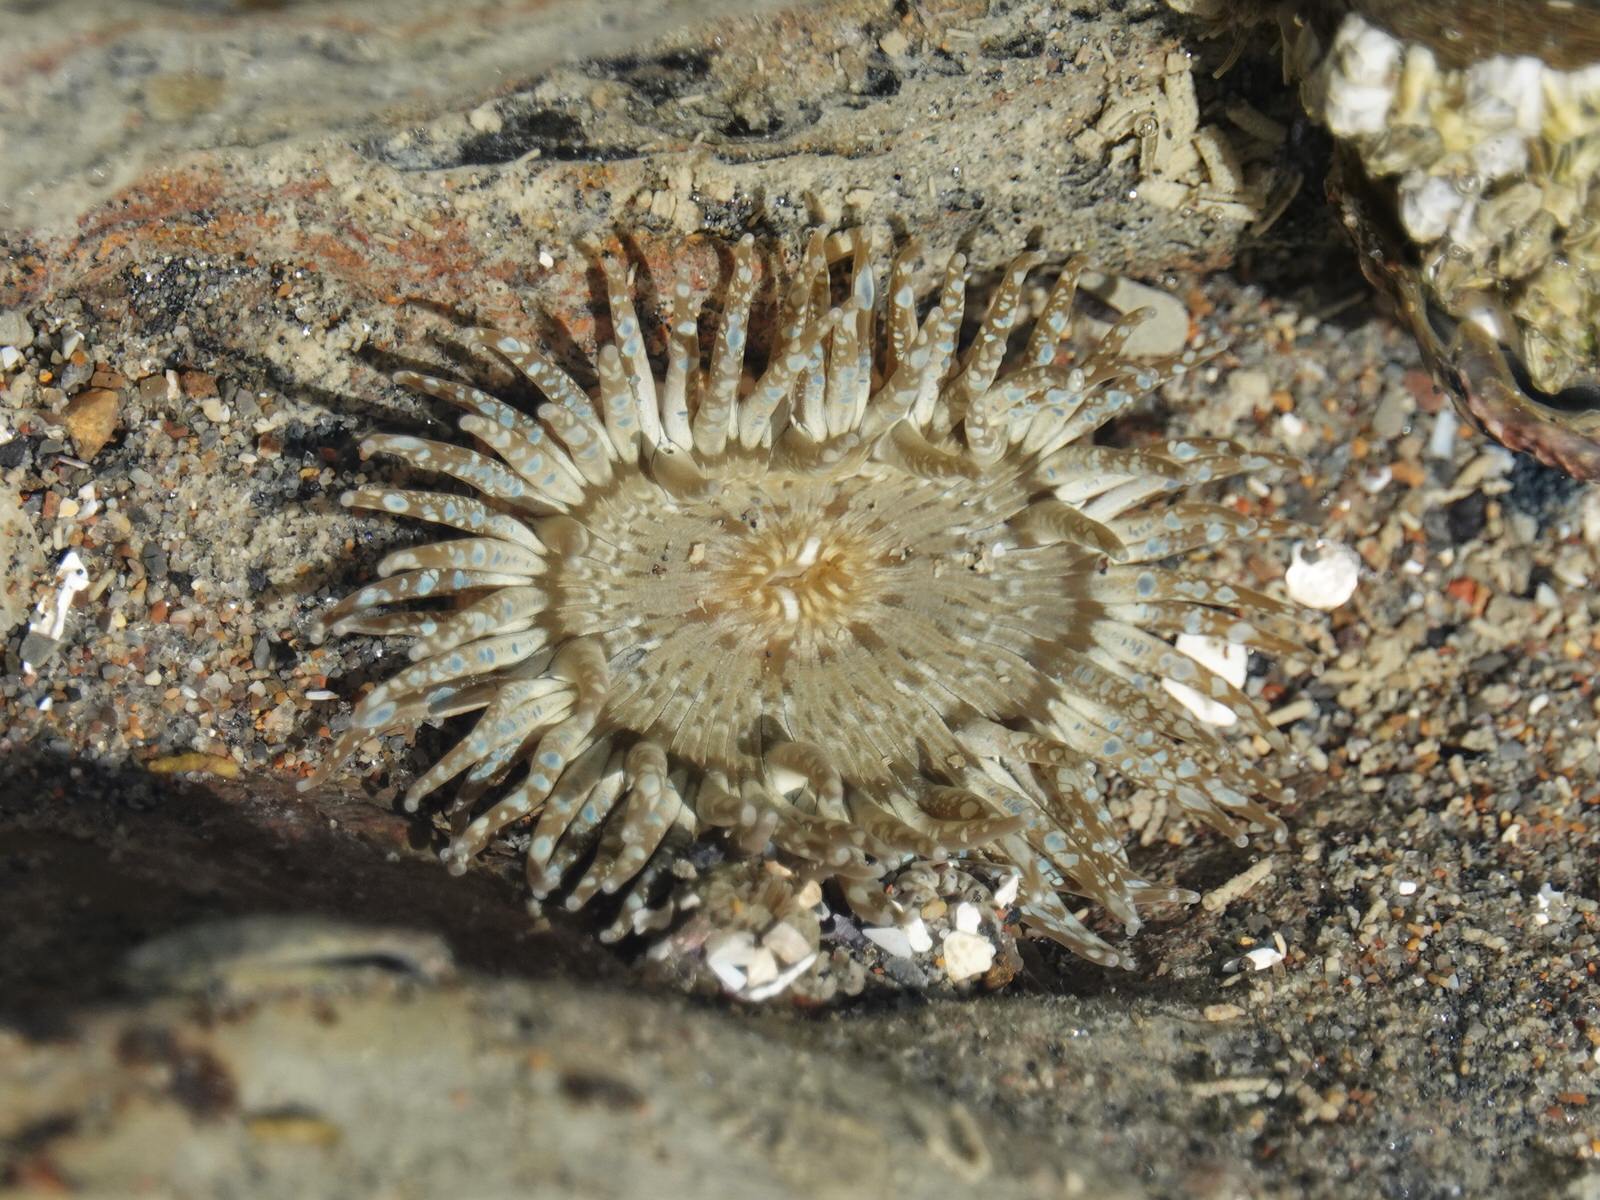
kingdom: Animalia
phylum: Cnidaria
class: Anthozoa
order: Actiniaria
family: Actiniidae
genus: Anthopleura
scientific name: Anthopleura hermaphroditica
